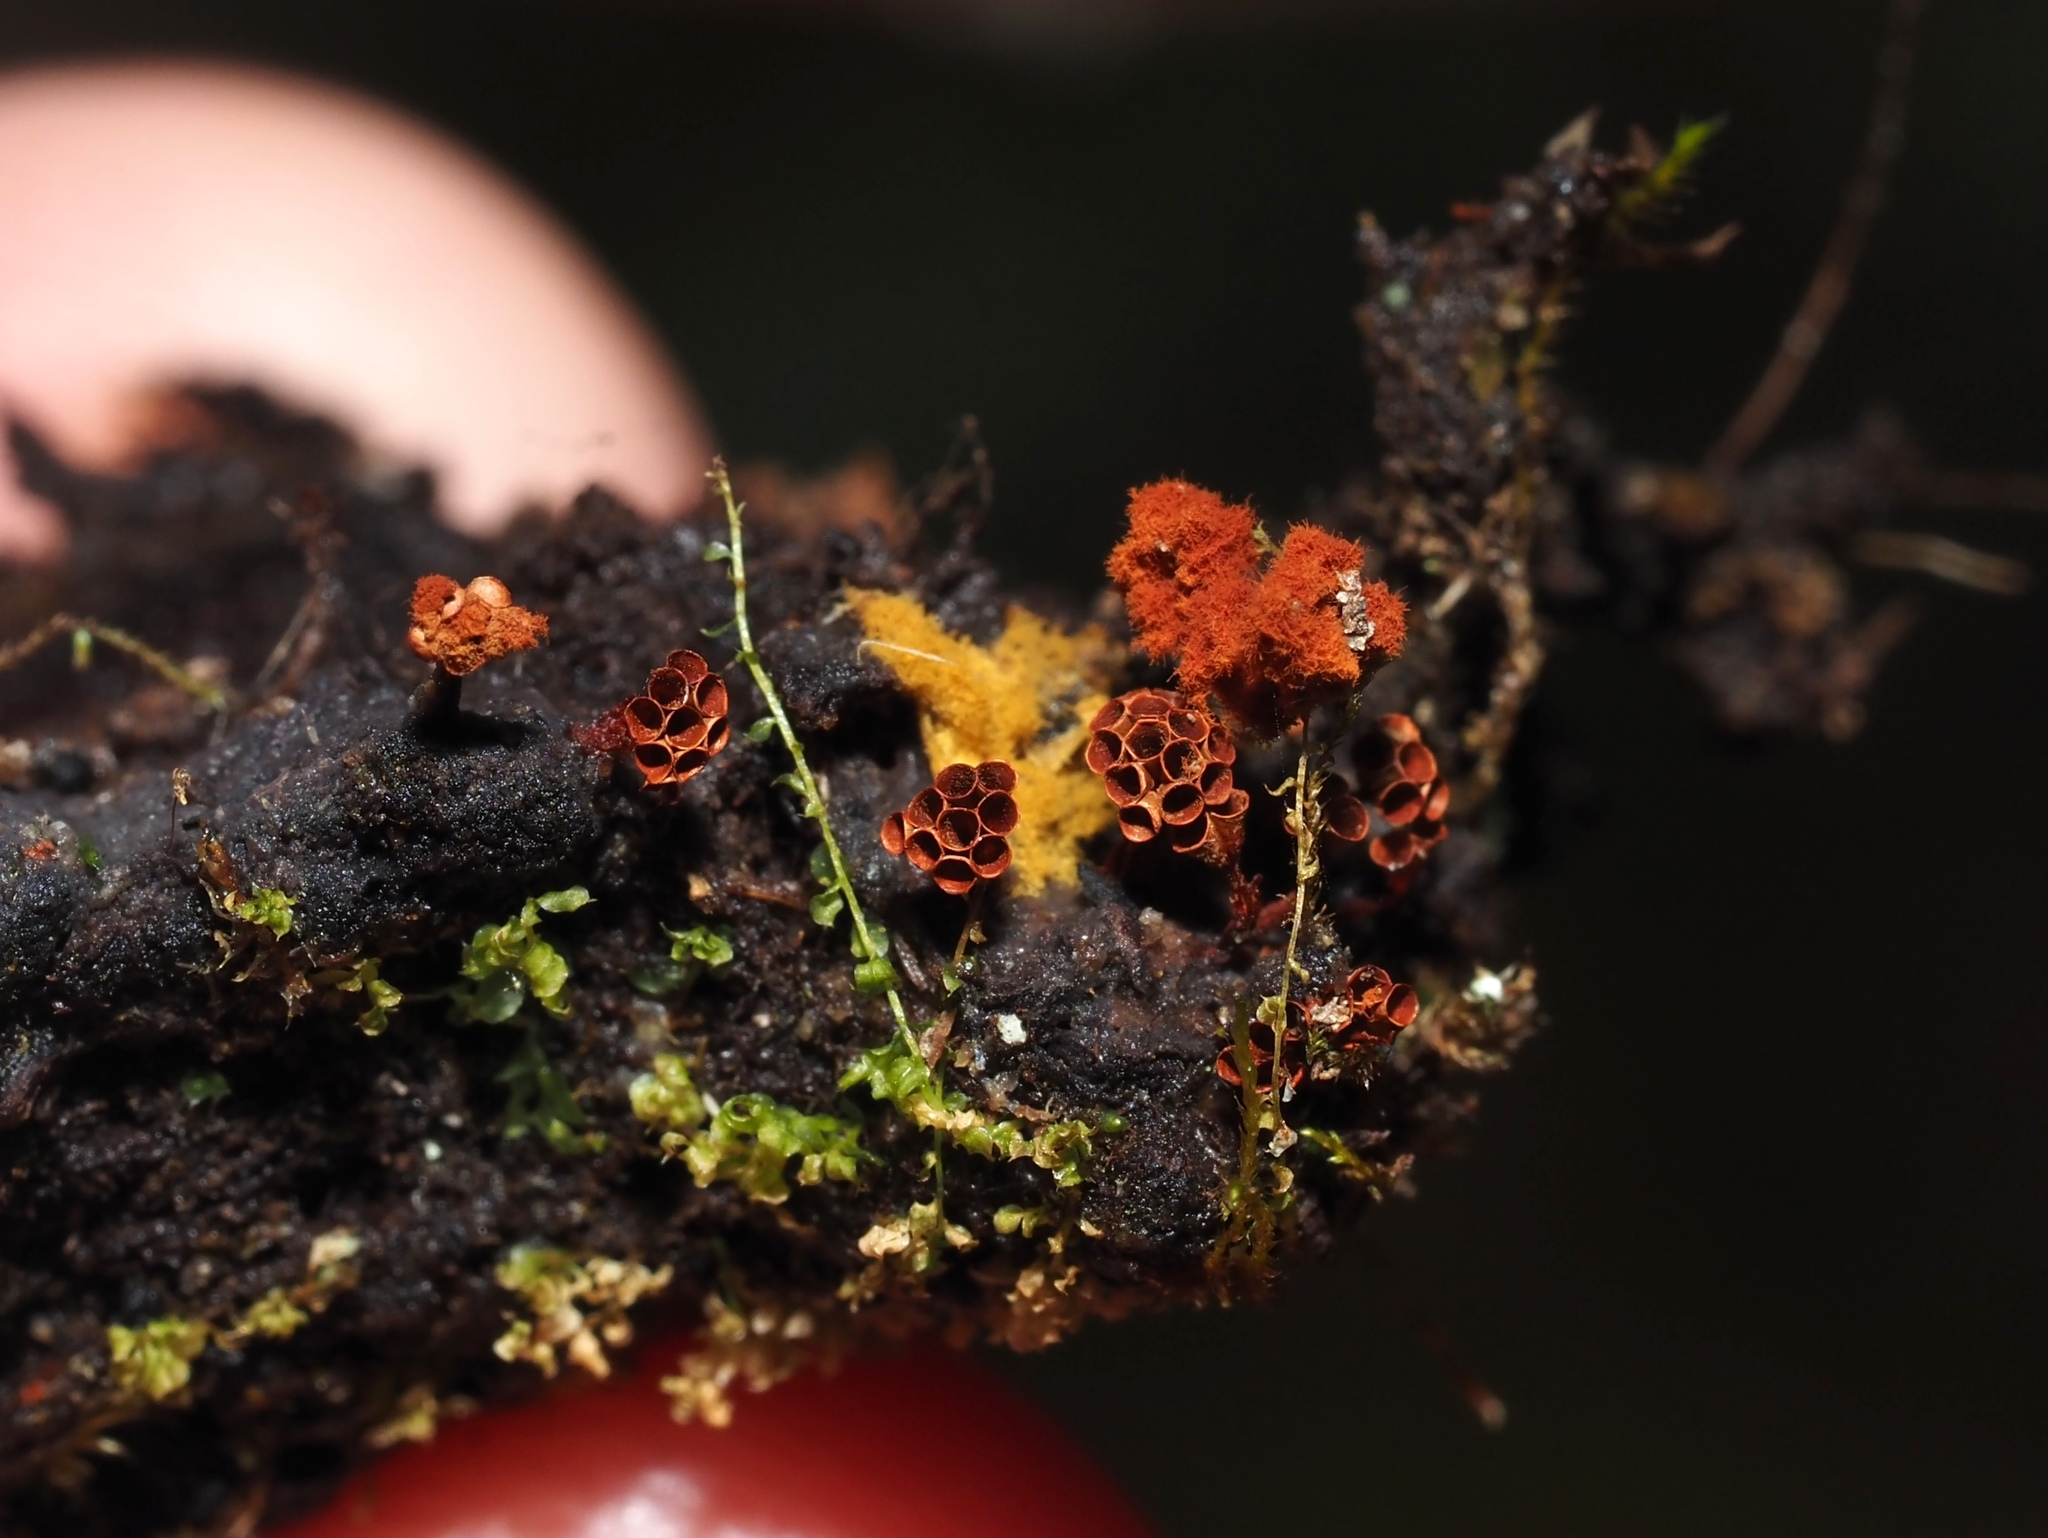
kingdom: Protozoa
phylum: Mycetozoa
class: Myxomycetes
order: Trichiales
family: Trichiaceae
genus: Metatrichia
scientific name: Metatrichia vesparia
